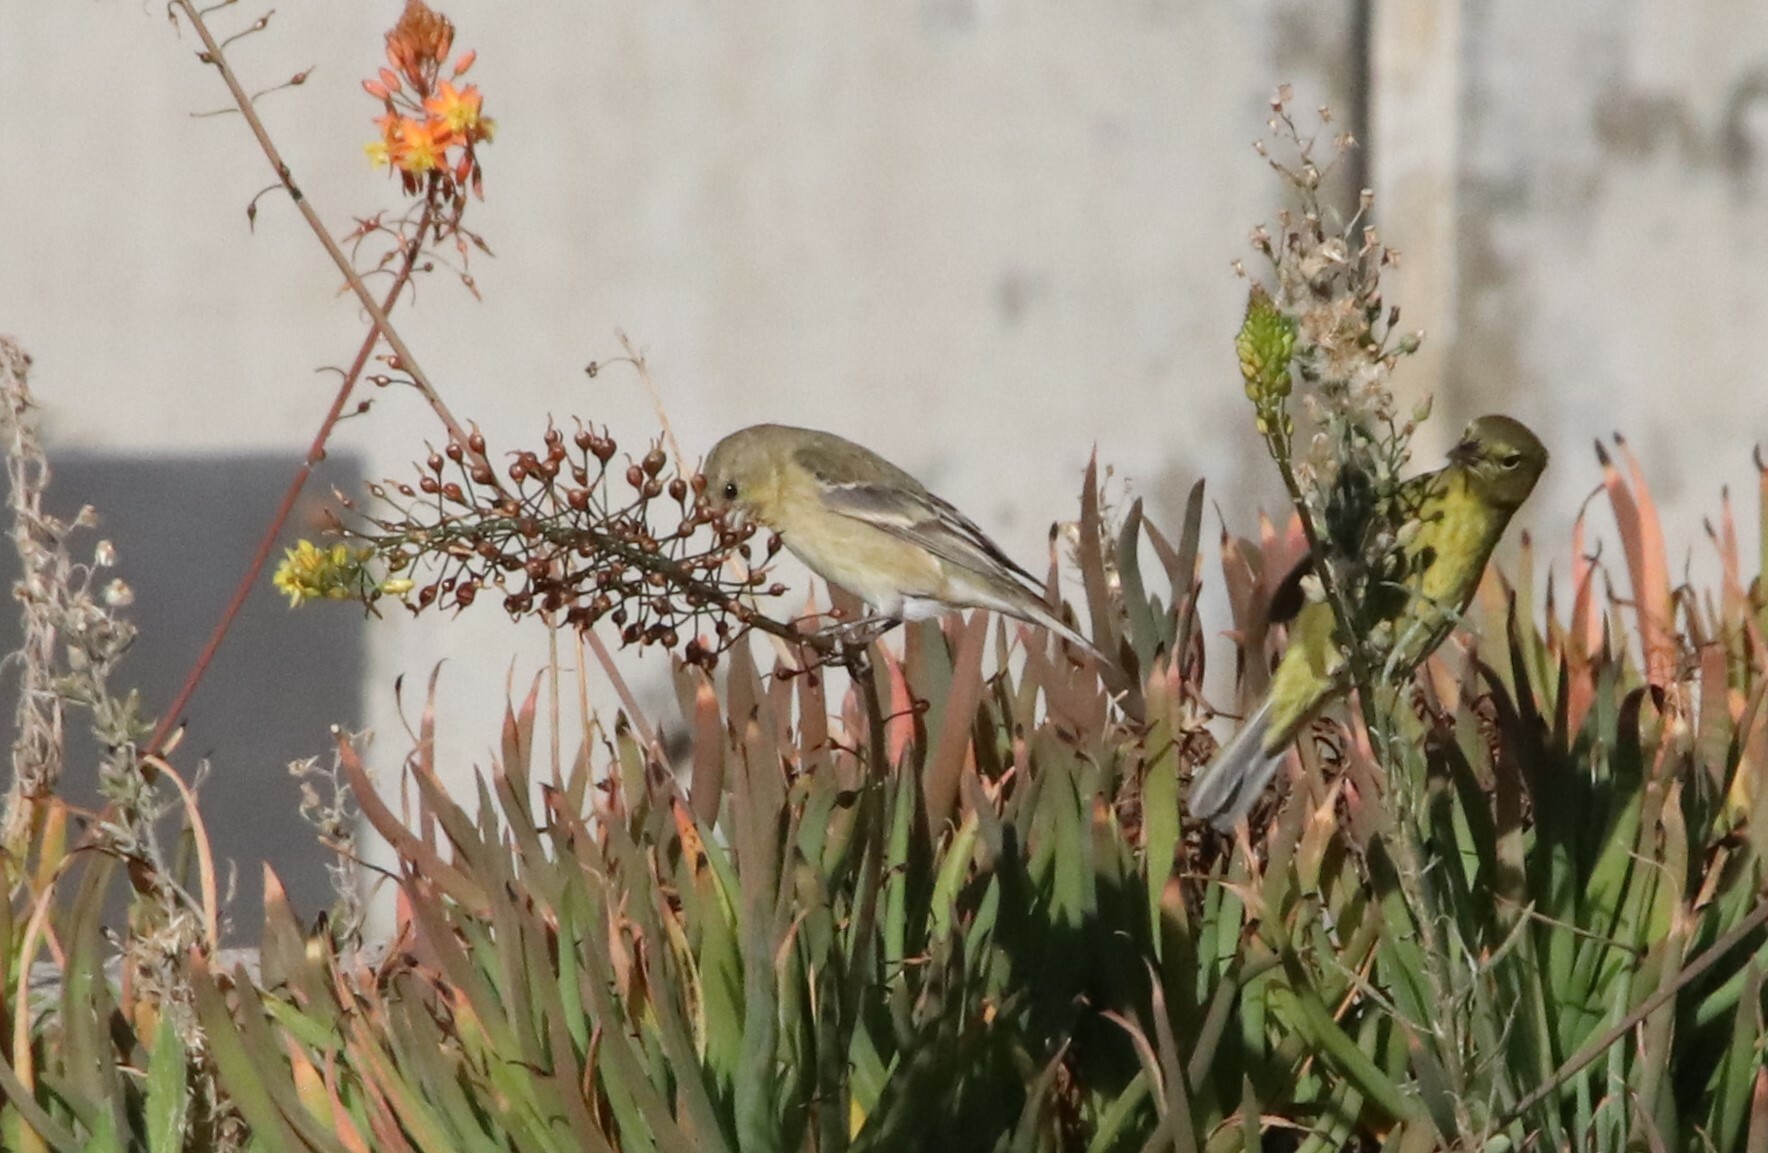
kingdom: Animalia
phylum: Chordata
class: Aves
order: Passeriformes
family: Fringillidae
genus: Spinus
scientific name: Spinus psaltria
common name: Lesser goldfinch
